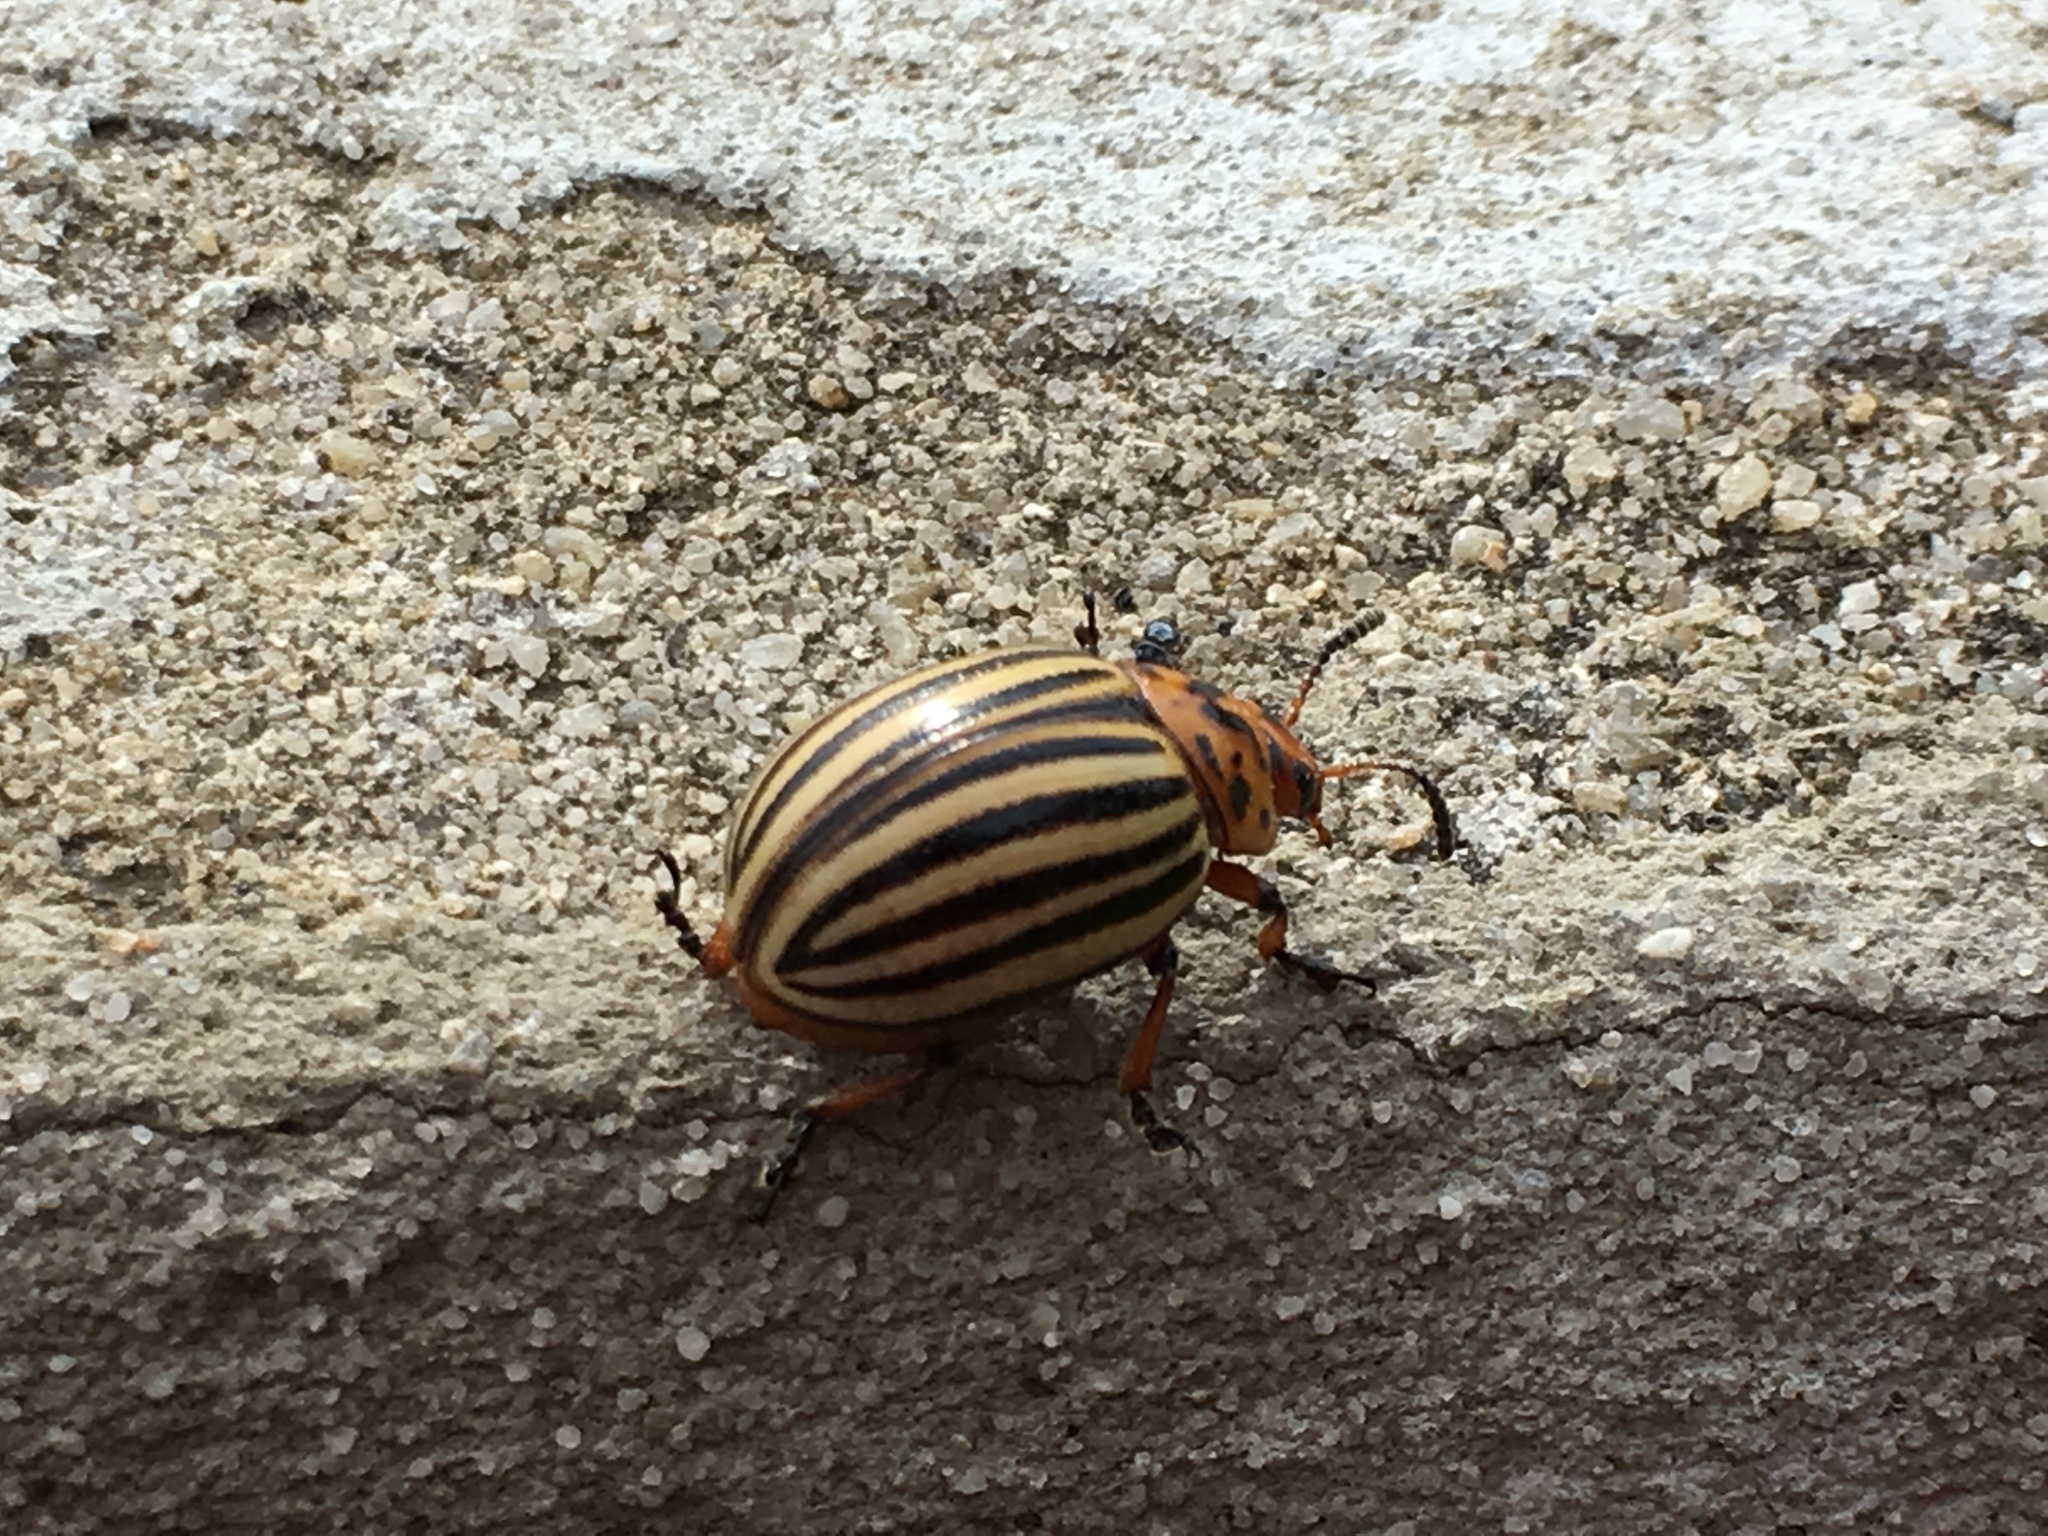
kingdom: Animalia
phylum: Arthropoda
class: Insecta
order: Coleoptera
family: Chrysomelidae
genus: Leptinotarsa
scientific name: Leptinotarsa decemlineata
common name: Colorado potato beetle
